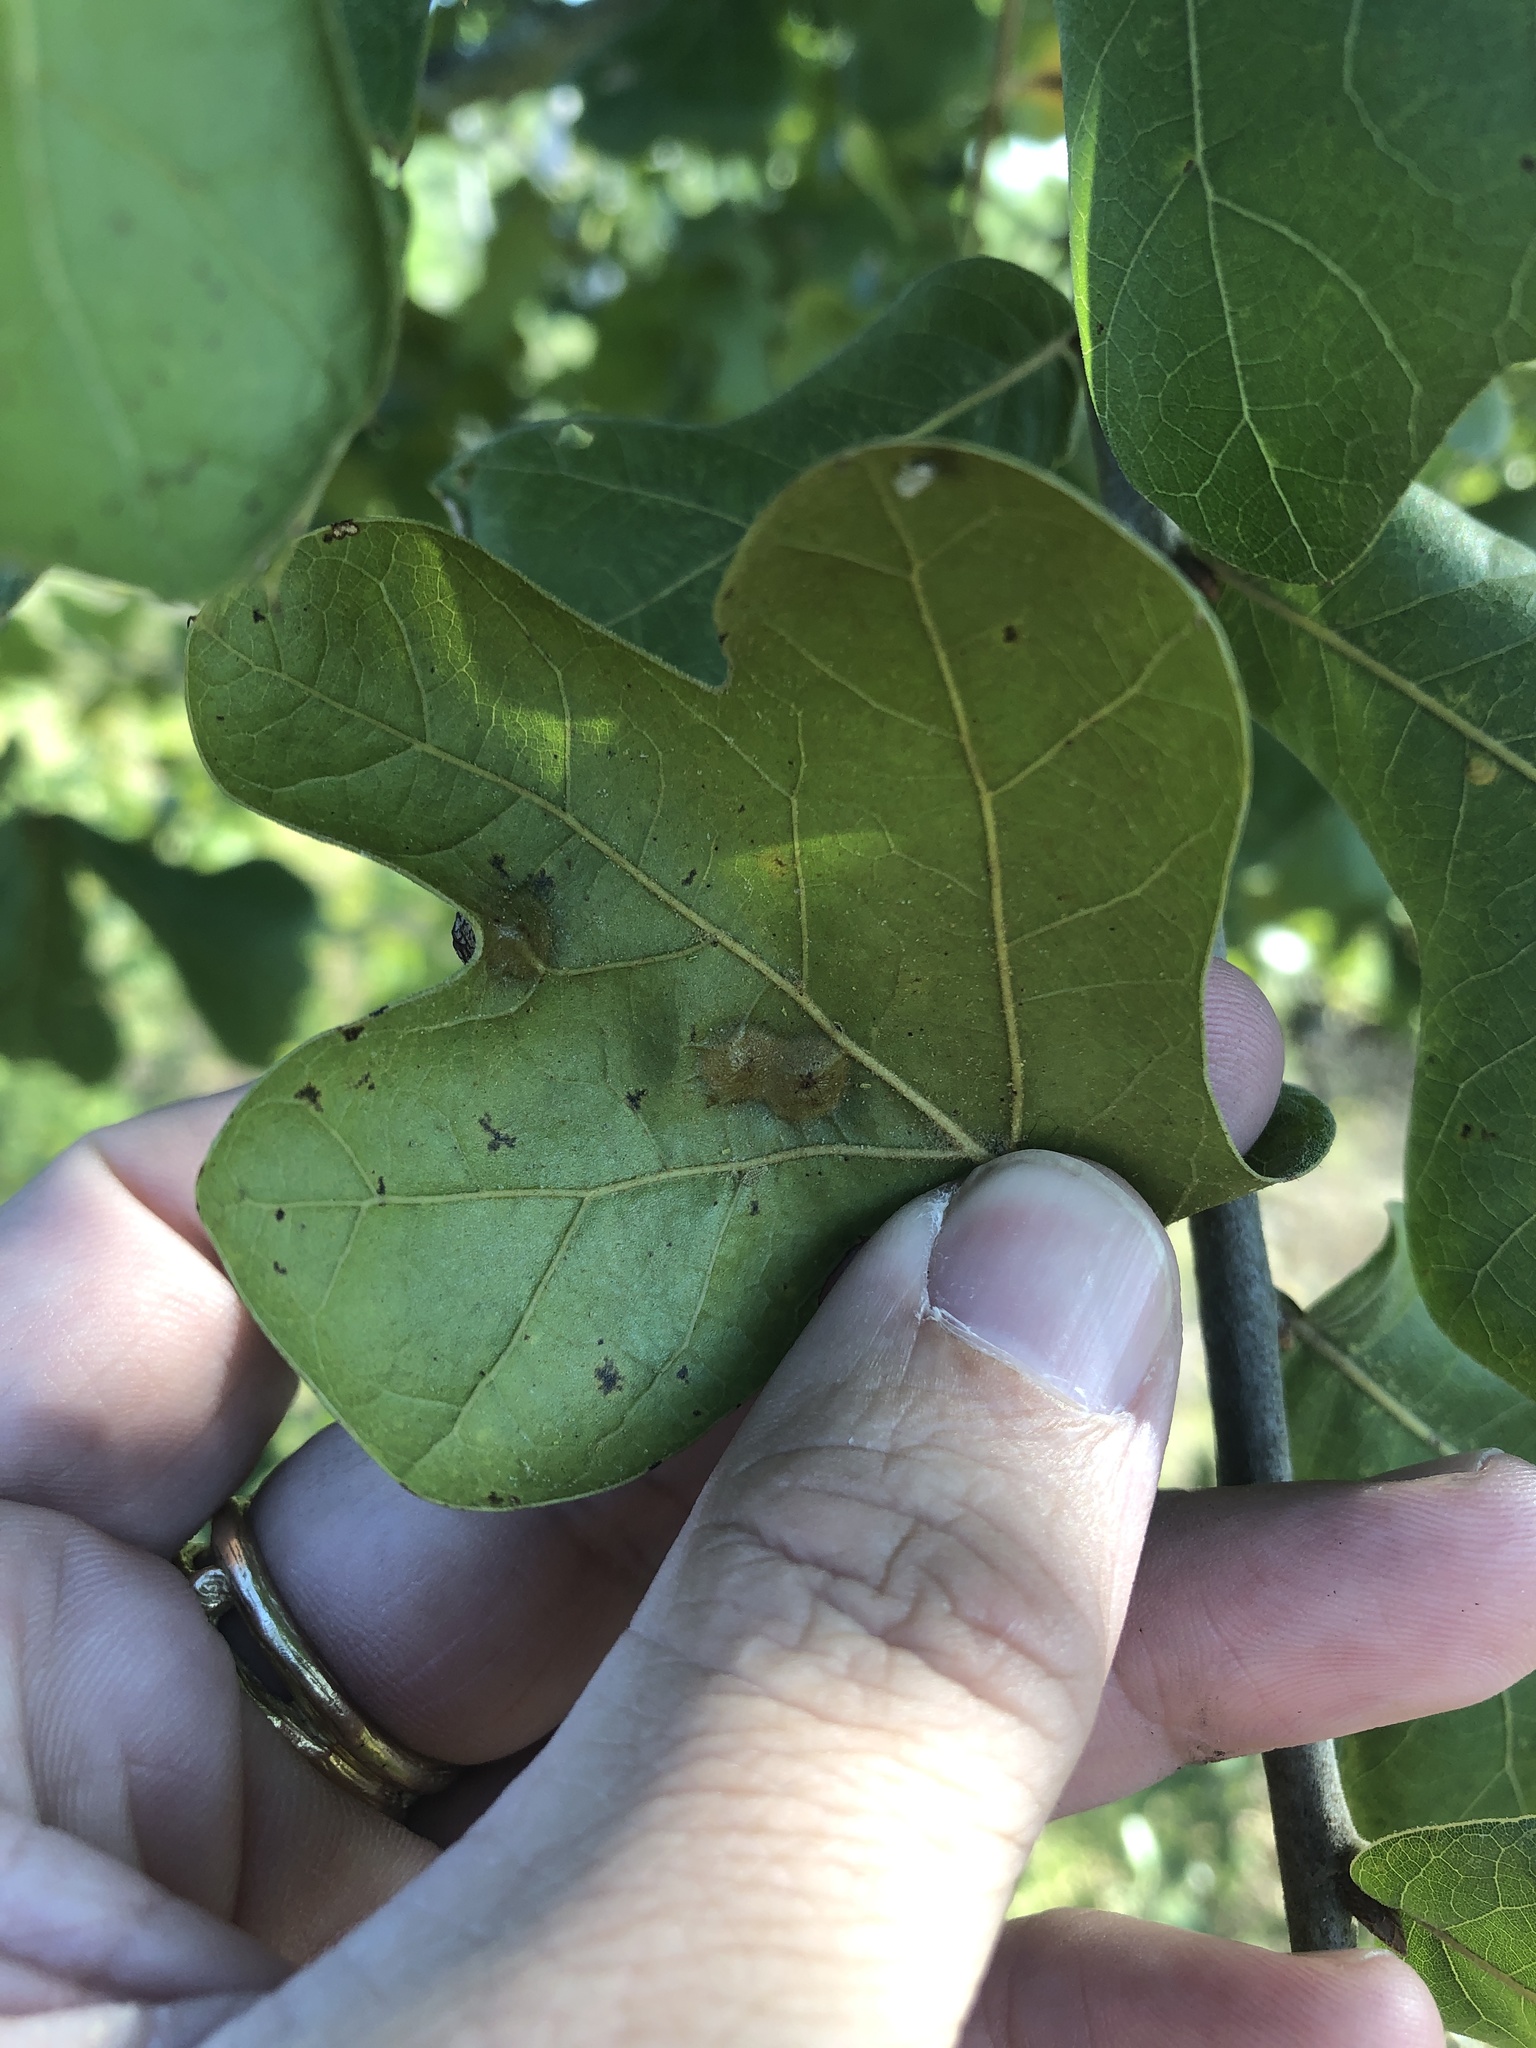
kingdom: Animalia
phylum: Arthropoda
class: Insecta
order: Diptera
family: Cecidomyiidae
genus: Polystepha
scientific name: Polystepha pilulae
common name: Oak leaf gall midge
